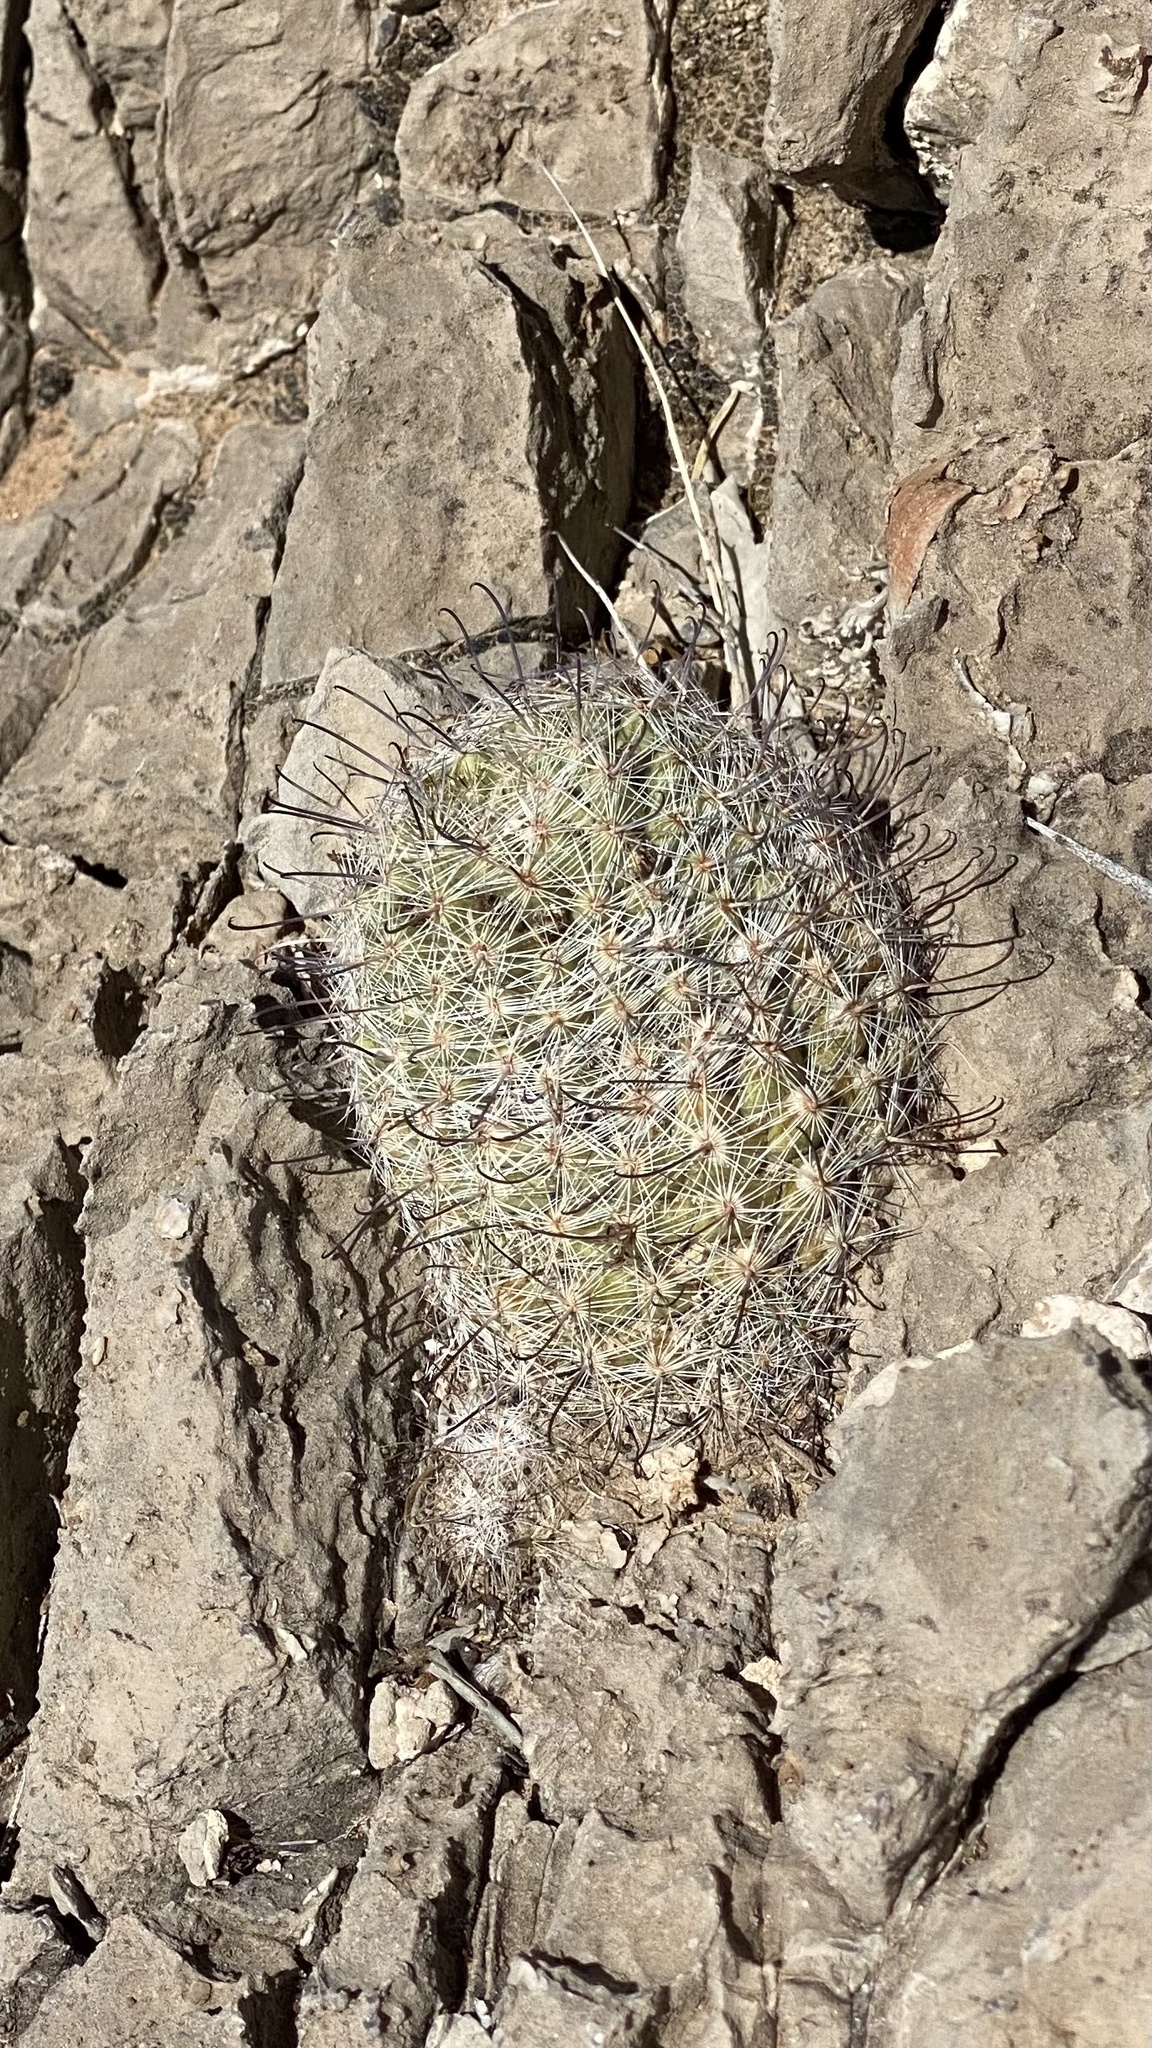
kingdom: Plantae
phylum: Tracheophyta
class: Magnoliopsida
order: Caryophyllales
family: Cactaceae
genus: Cochemiea
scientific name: Cochemiea grahamii
